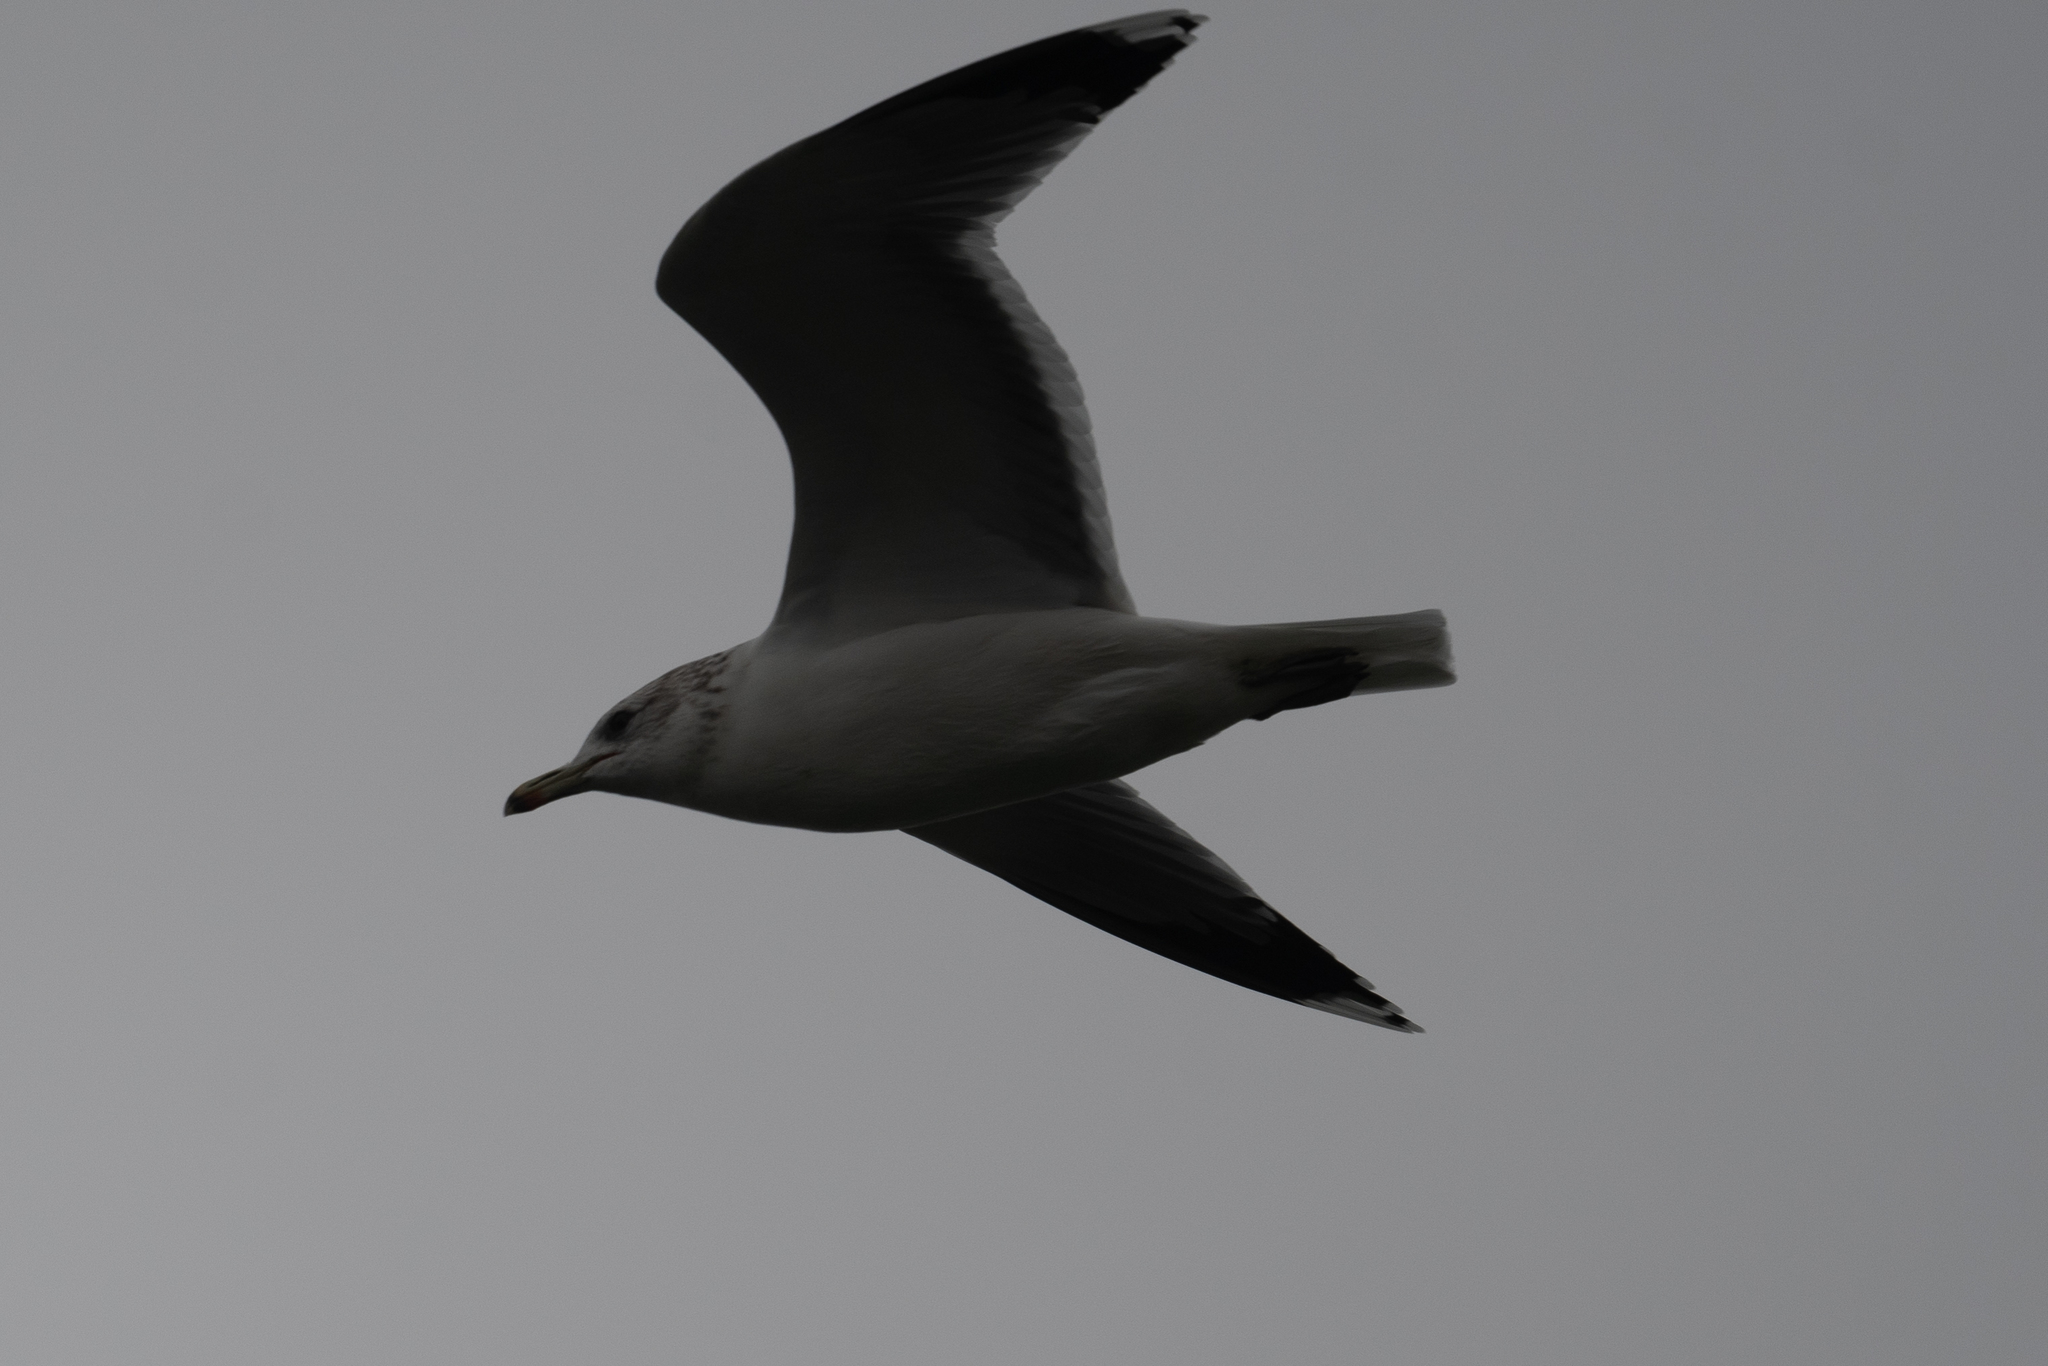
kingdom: Animalia
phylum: Chordata
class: Aves
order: Charadriiformes
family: Laridae
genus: Larus
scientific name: Larus californicus
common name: California gull
